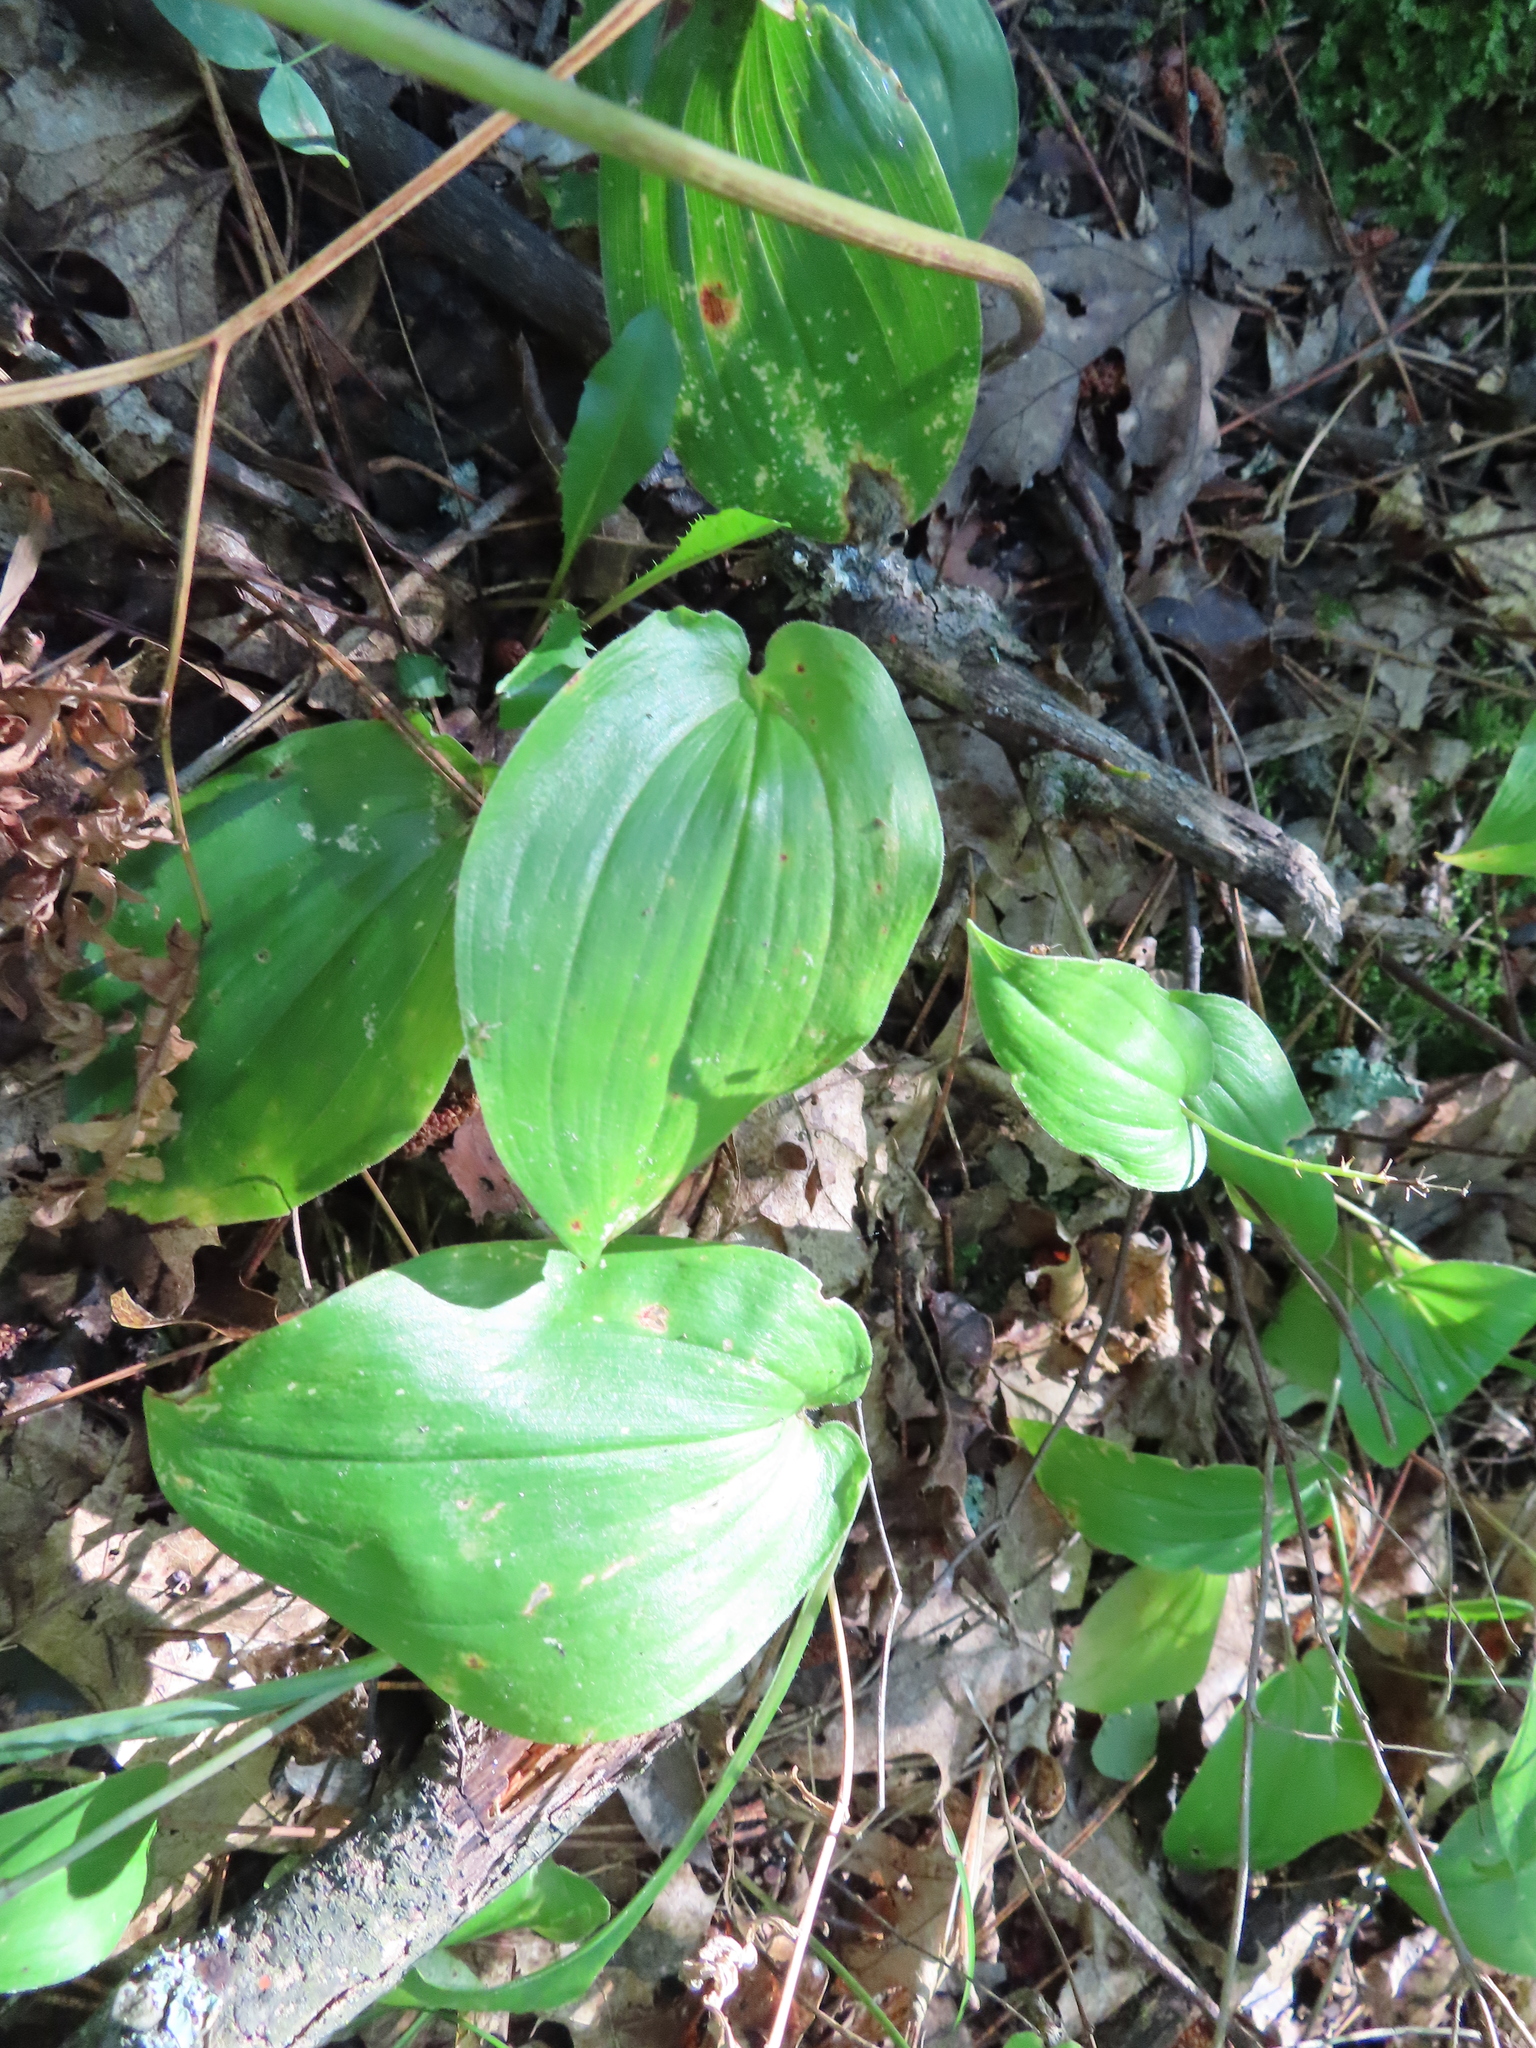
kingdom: Plantae
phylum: Tracheophyta
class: Liliopsida
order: Asparagales
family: Asparagaceae
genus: Maianthemum
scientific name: Maianthemum canadense
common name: False lily-of-the-valley
